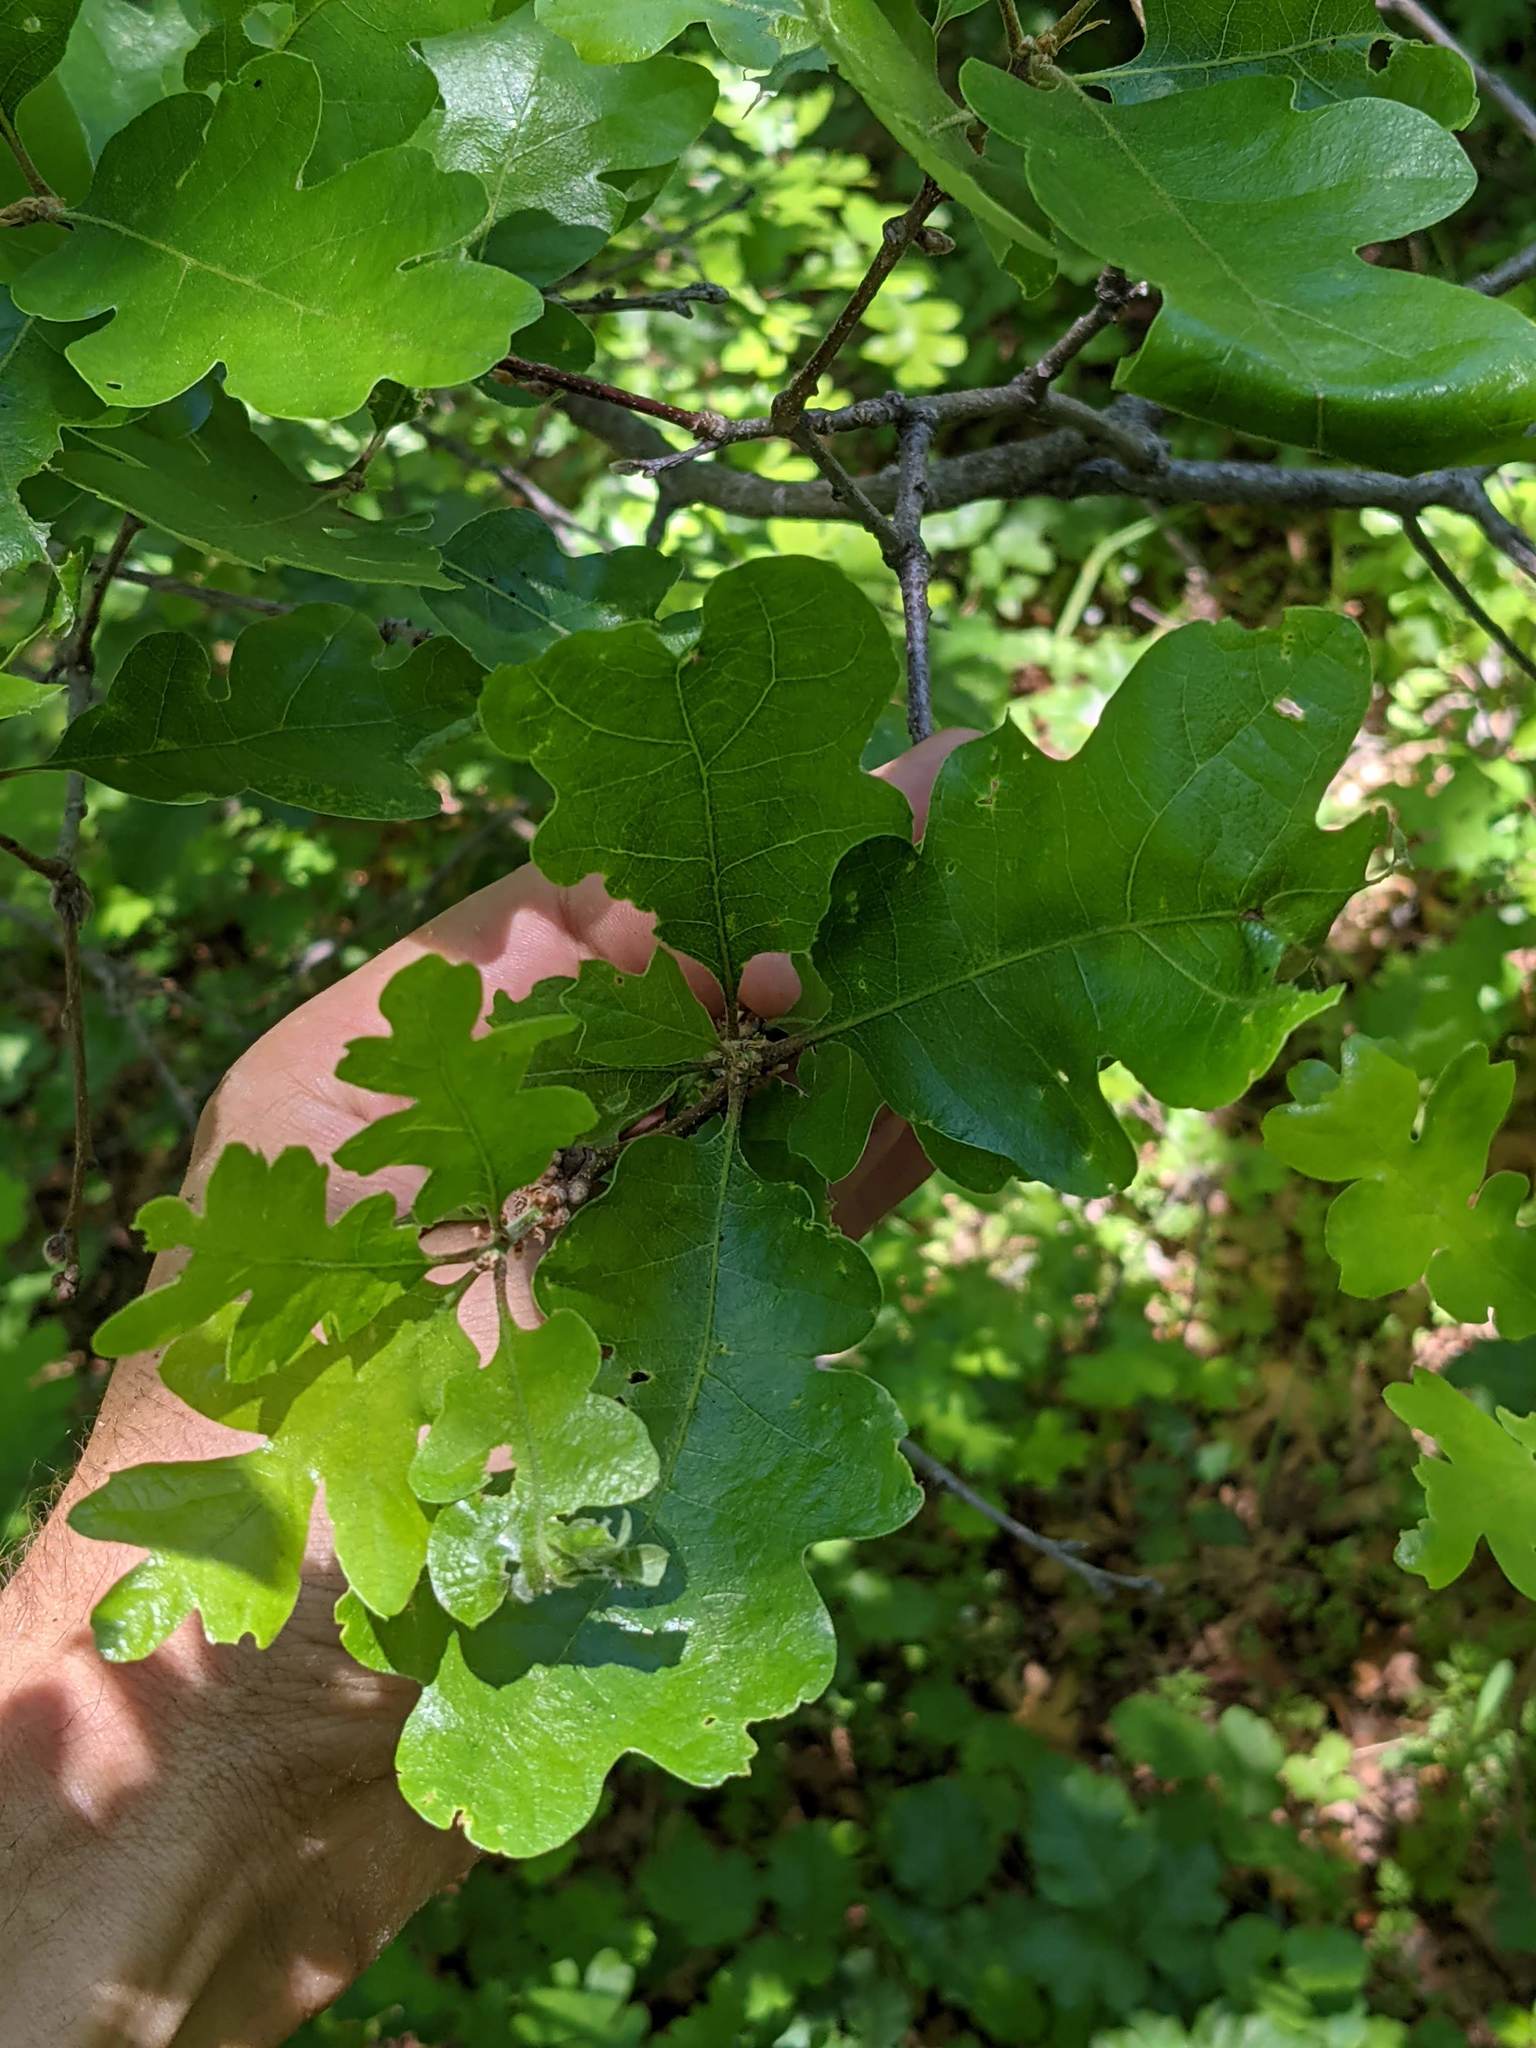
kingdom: Plantae
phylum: Tracheophyta
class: Magnoliopsida
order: Fagales
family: Fagaceae
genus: Quercus
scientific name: Quercus garryana
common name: Garry oak
